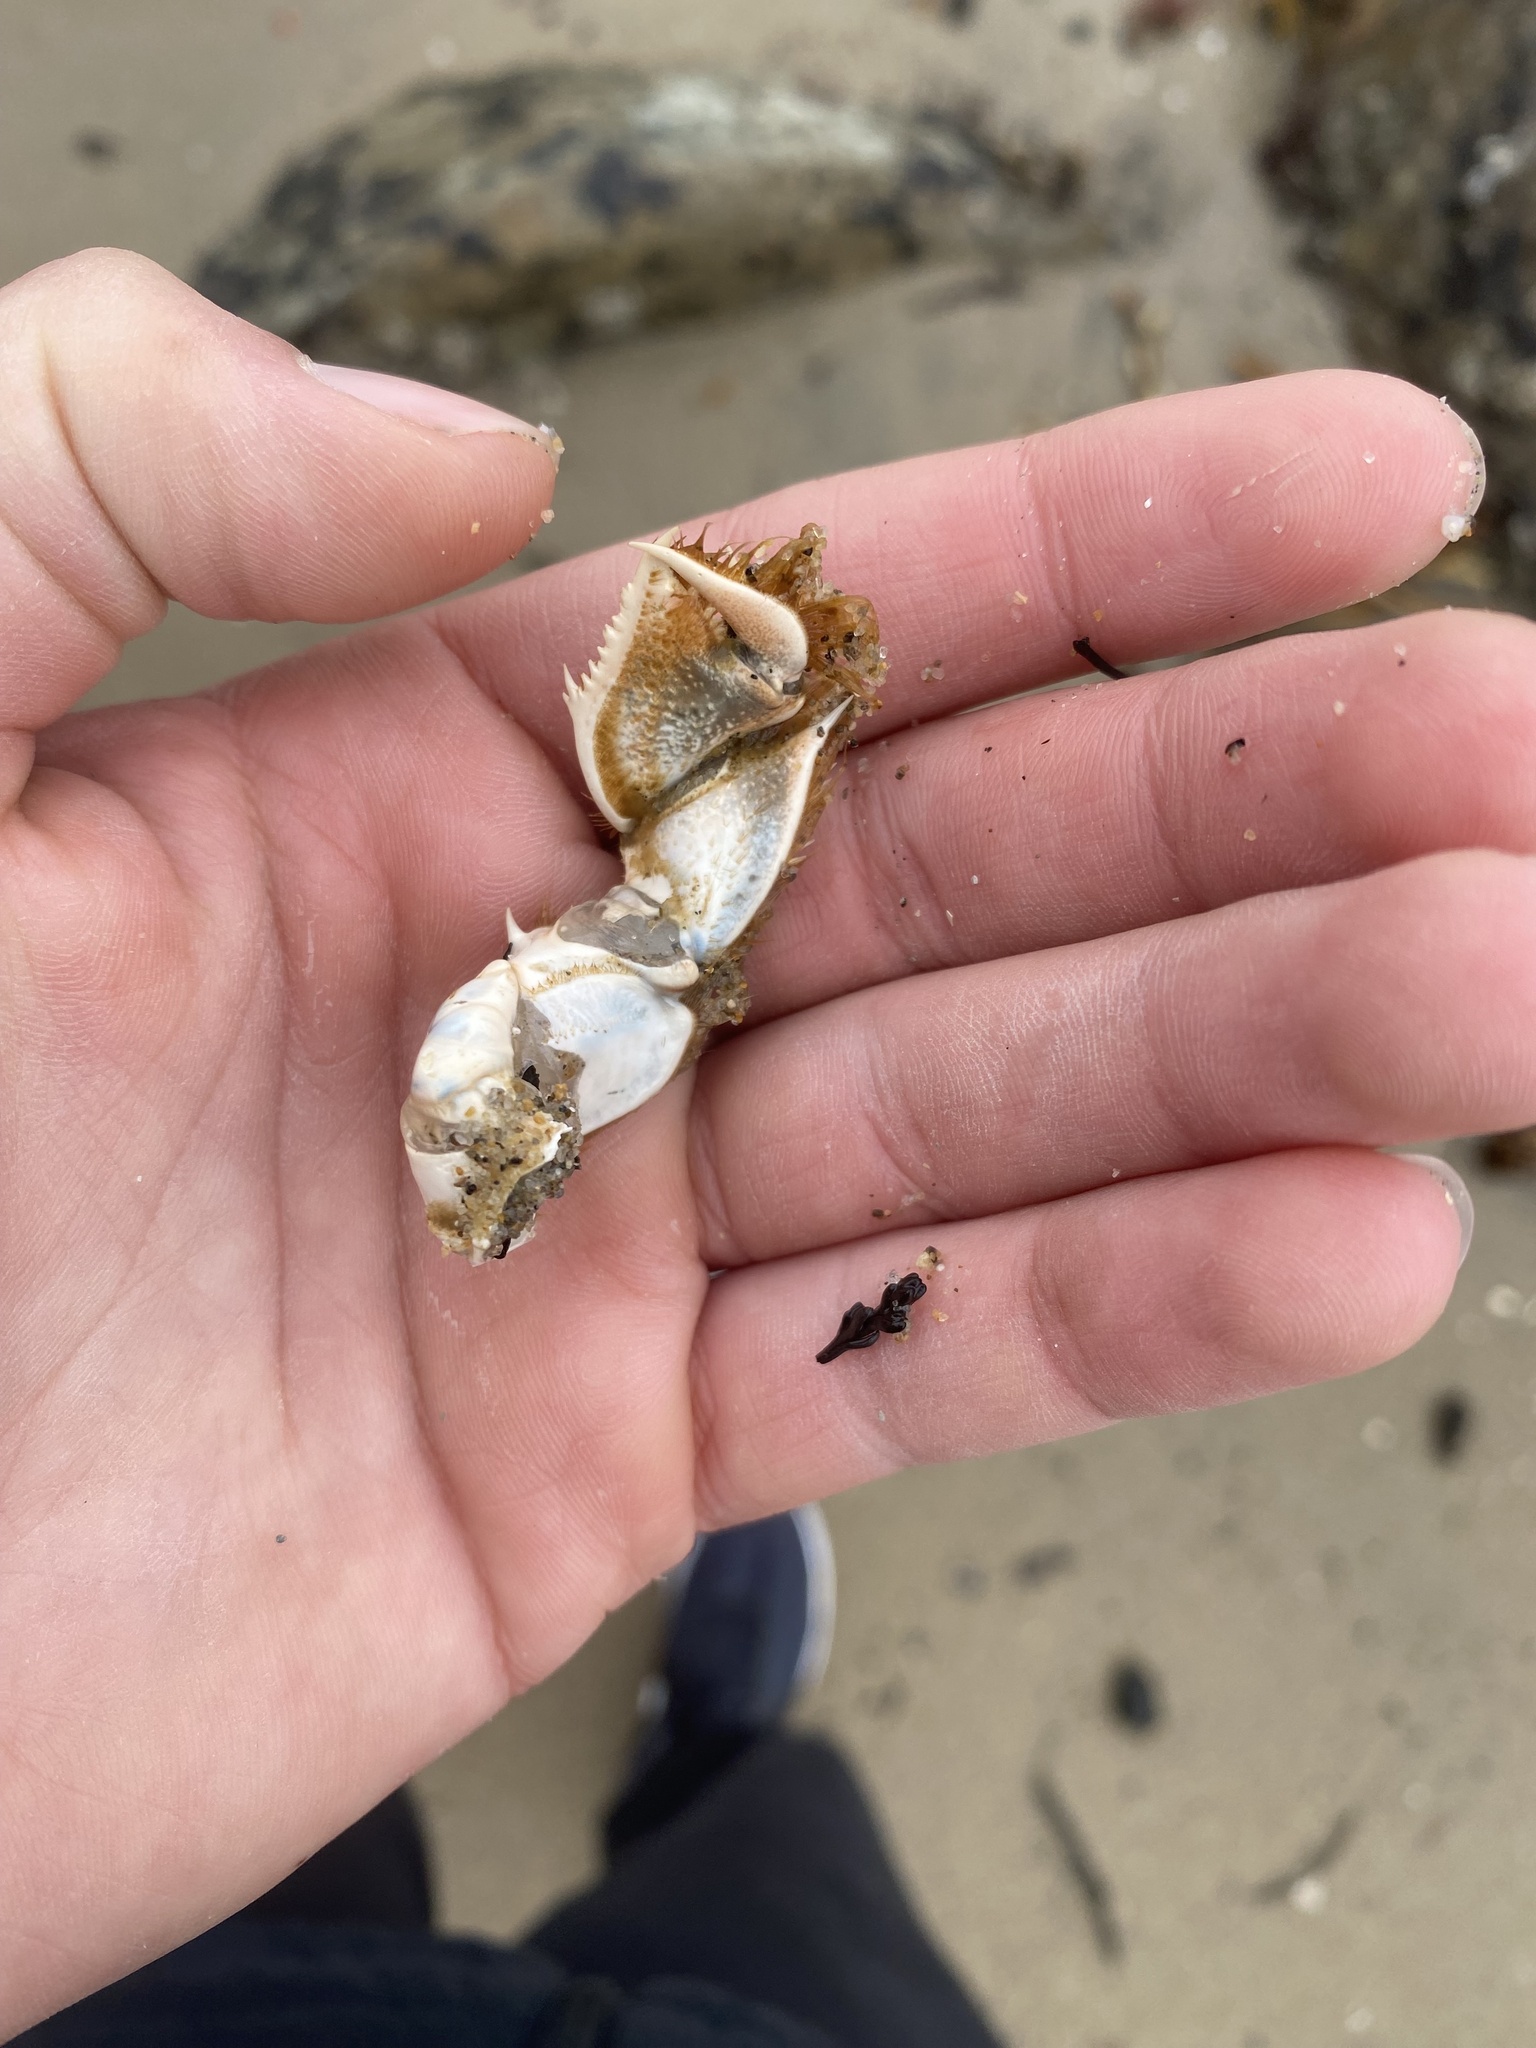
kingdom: Animalia
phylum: Arthropoda
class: Malacostraca
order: Decapoda
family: Blepharipodidae
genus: Blepharipoda
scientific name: Blepharipoda occidentalis
